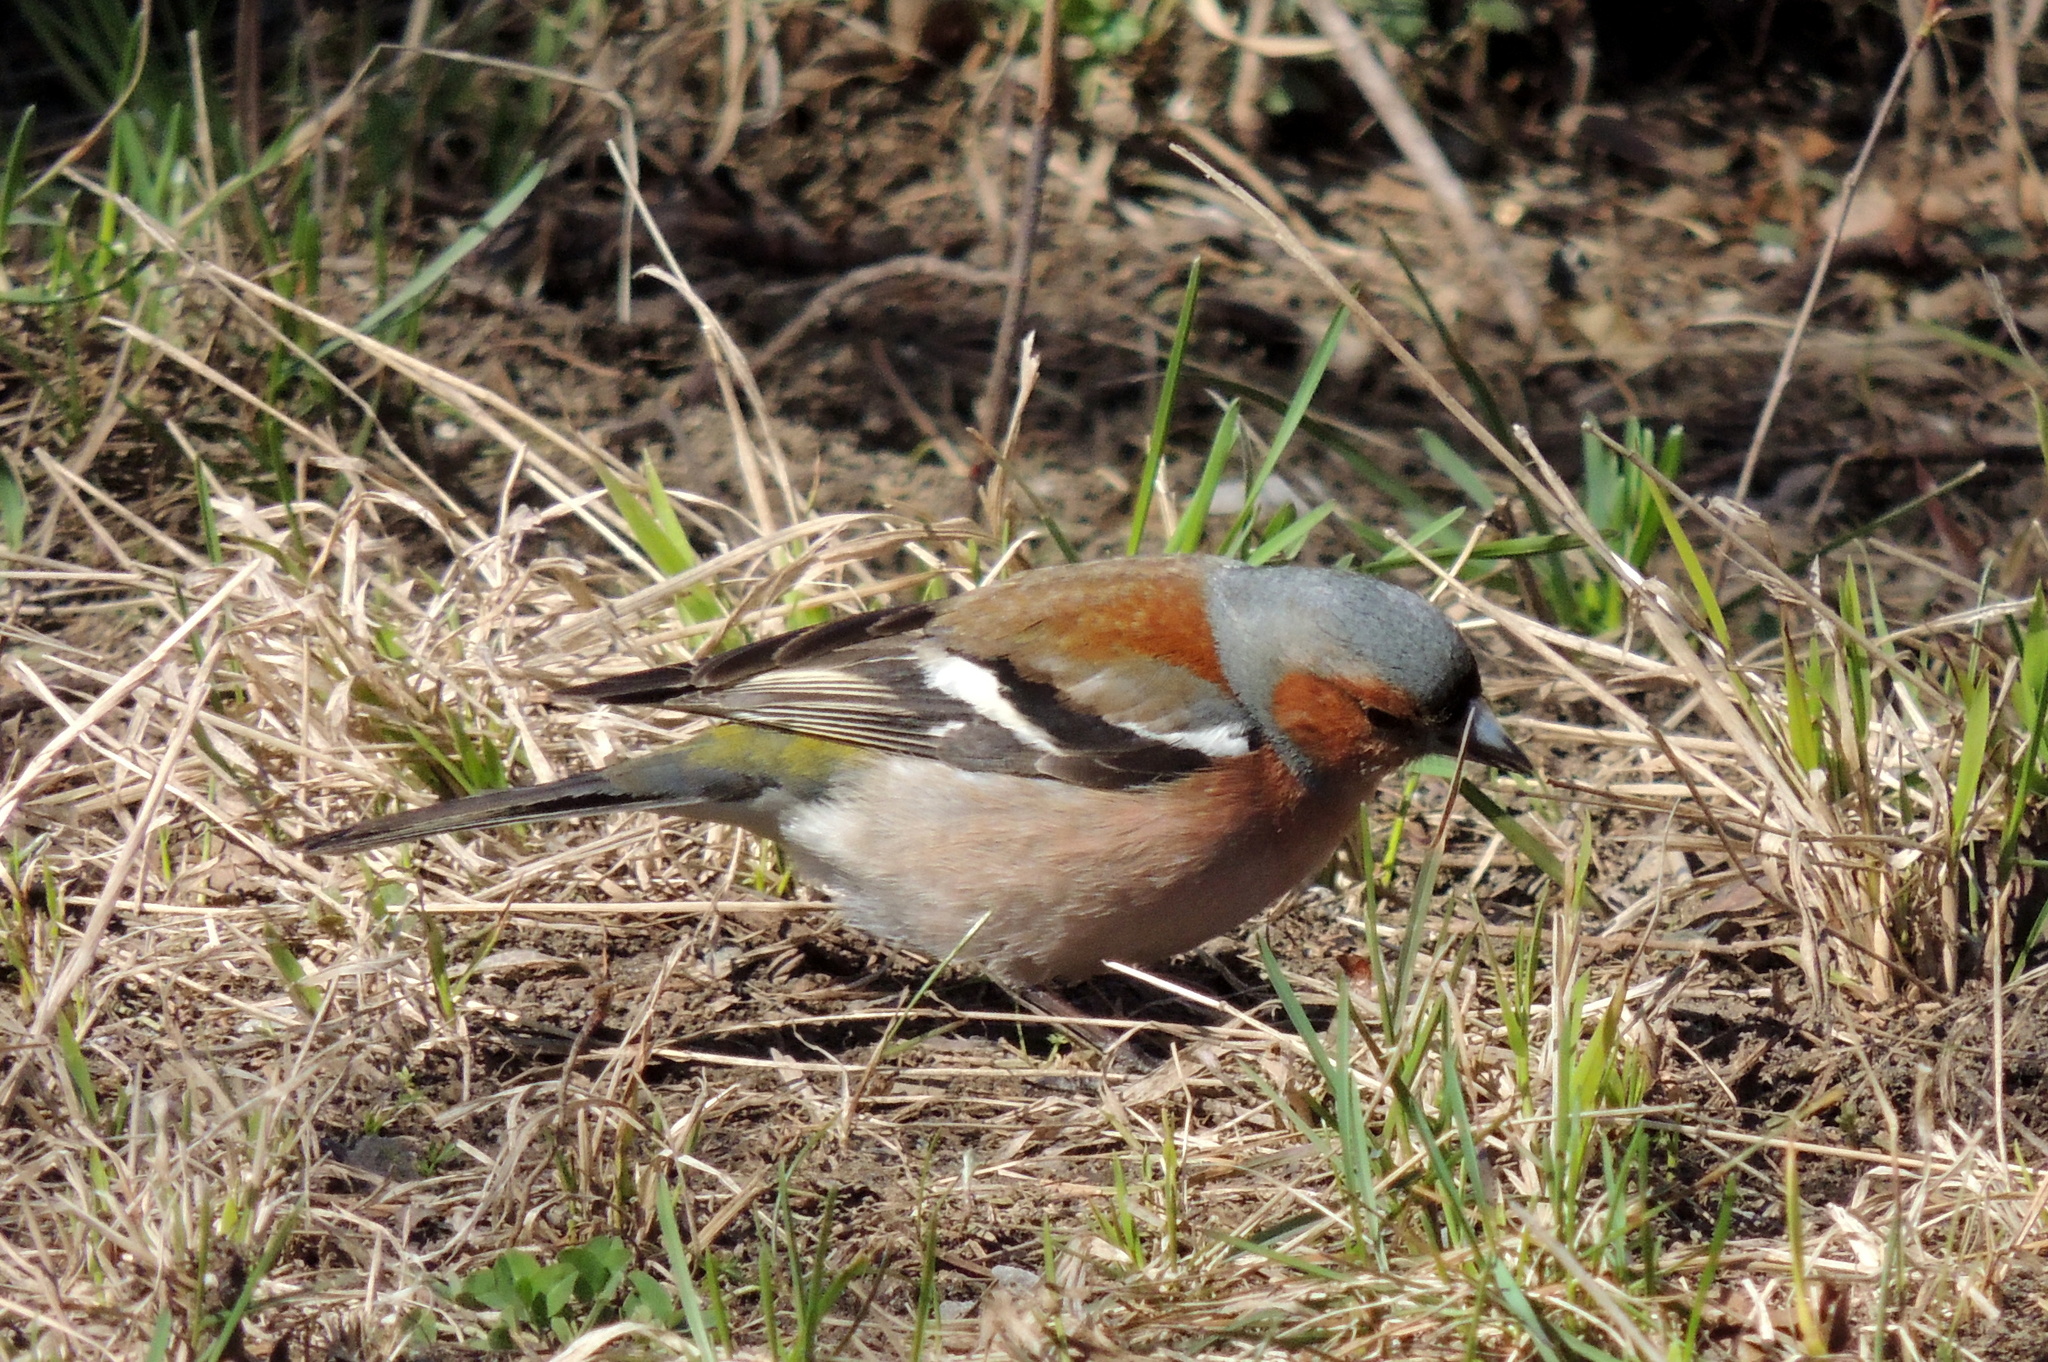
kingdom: Animalia
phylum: Chordata
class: Aves
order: Passeriformes
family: Fringillidae
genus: Fringilla
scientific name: Fringilla coelebs
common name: Common chaffinch
